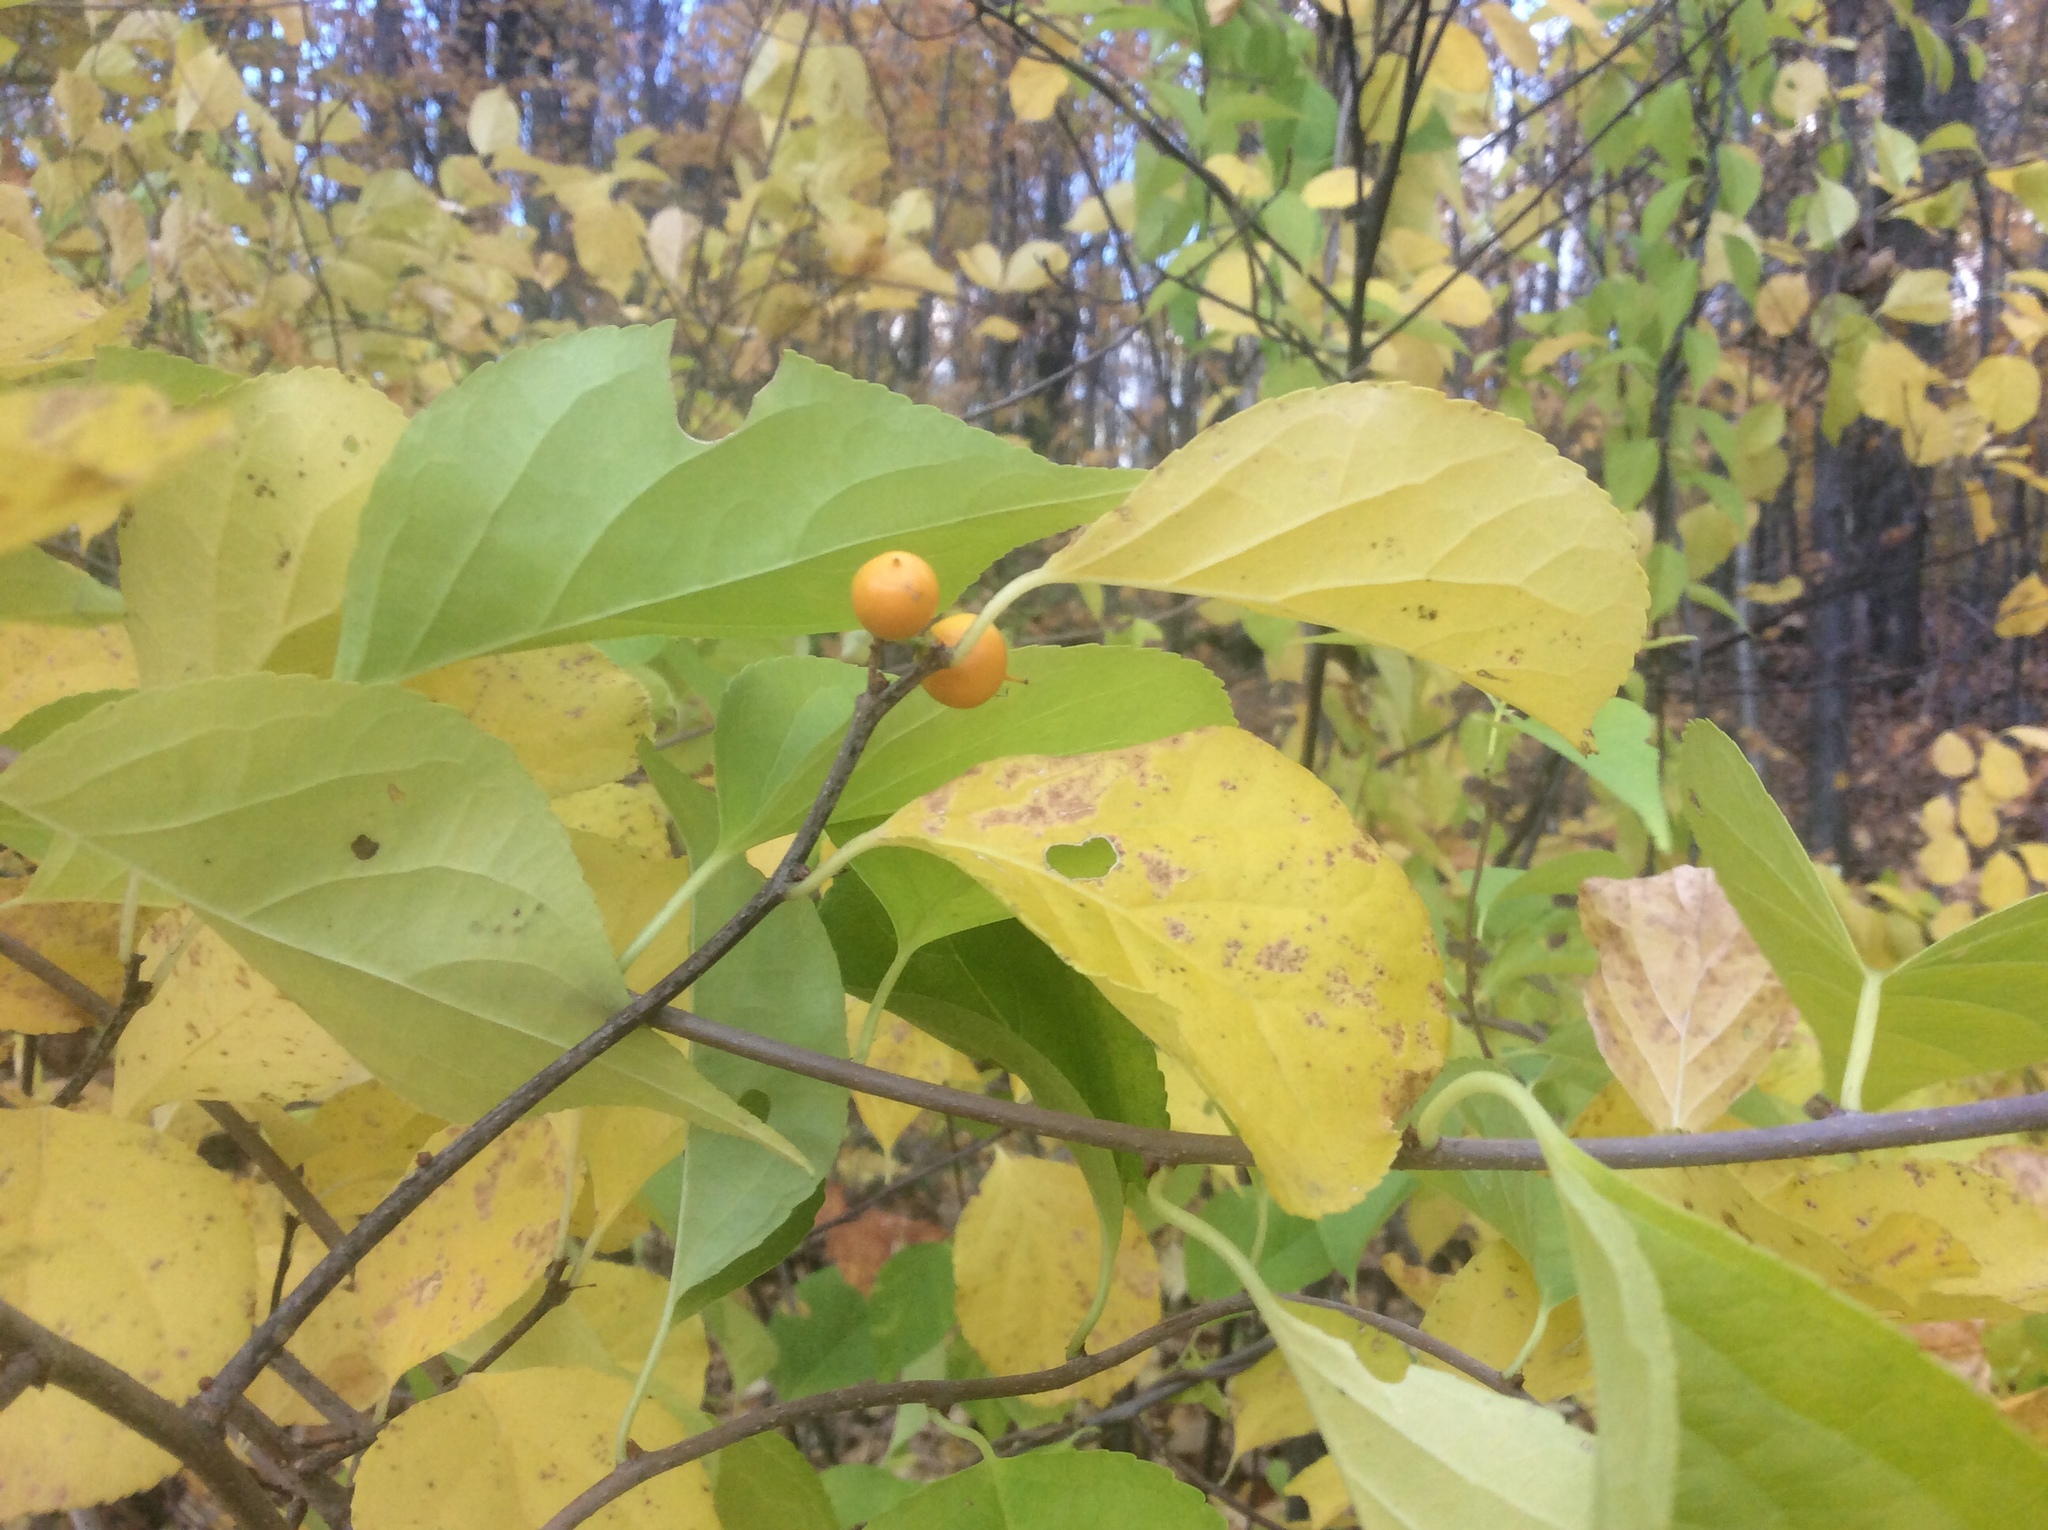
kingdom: Plantae
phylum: Tracheophyta
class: Magnoliopsida
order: Celastrales
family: Celastraceae
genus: Celastrus
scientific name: Celastrus orbiculatus
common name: Oriental bittersweet
